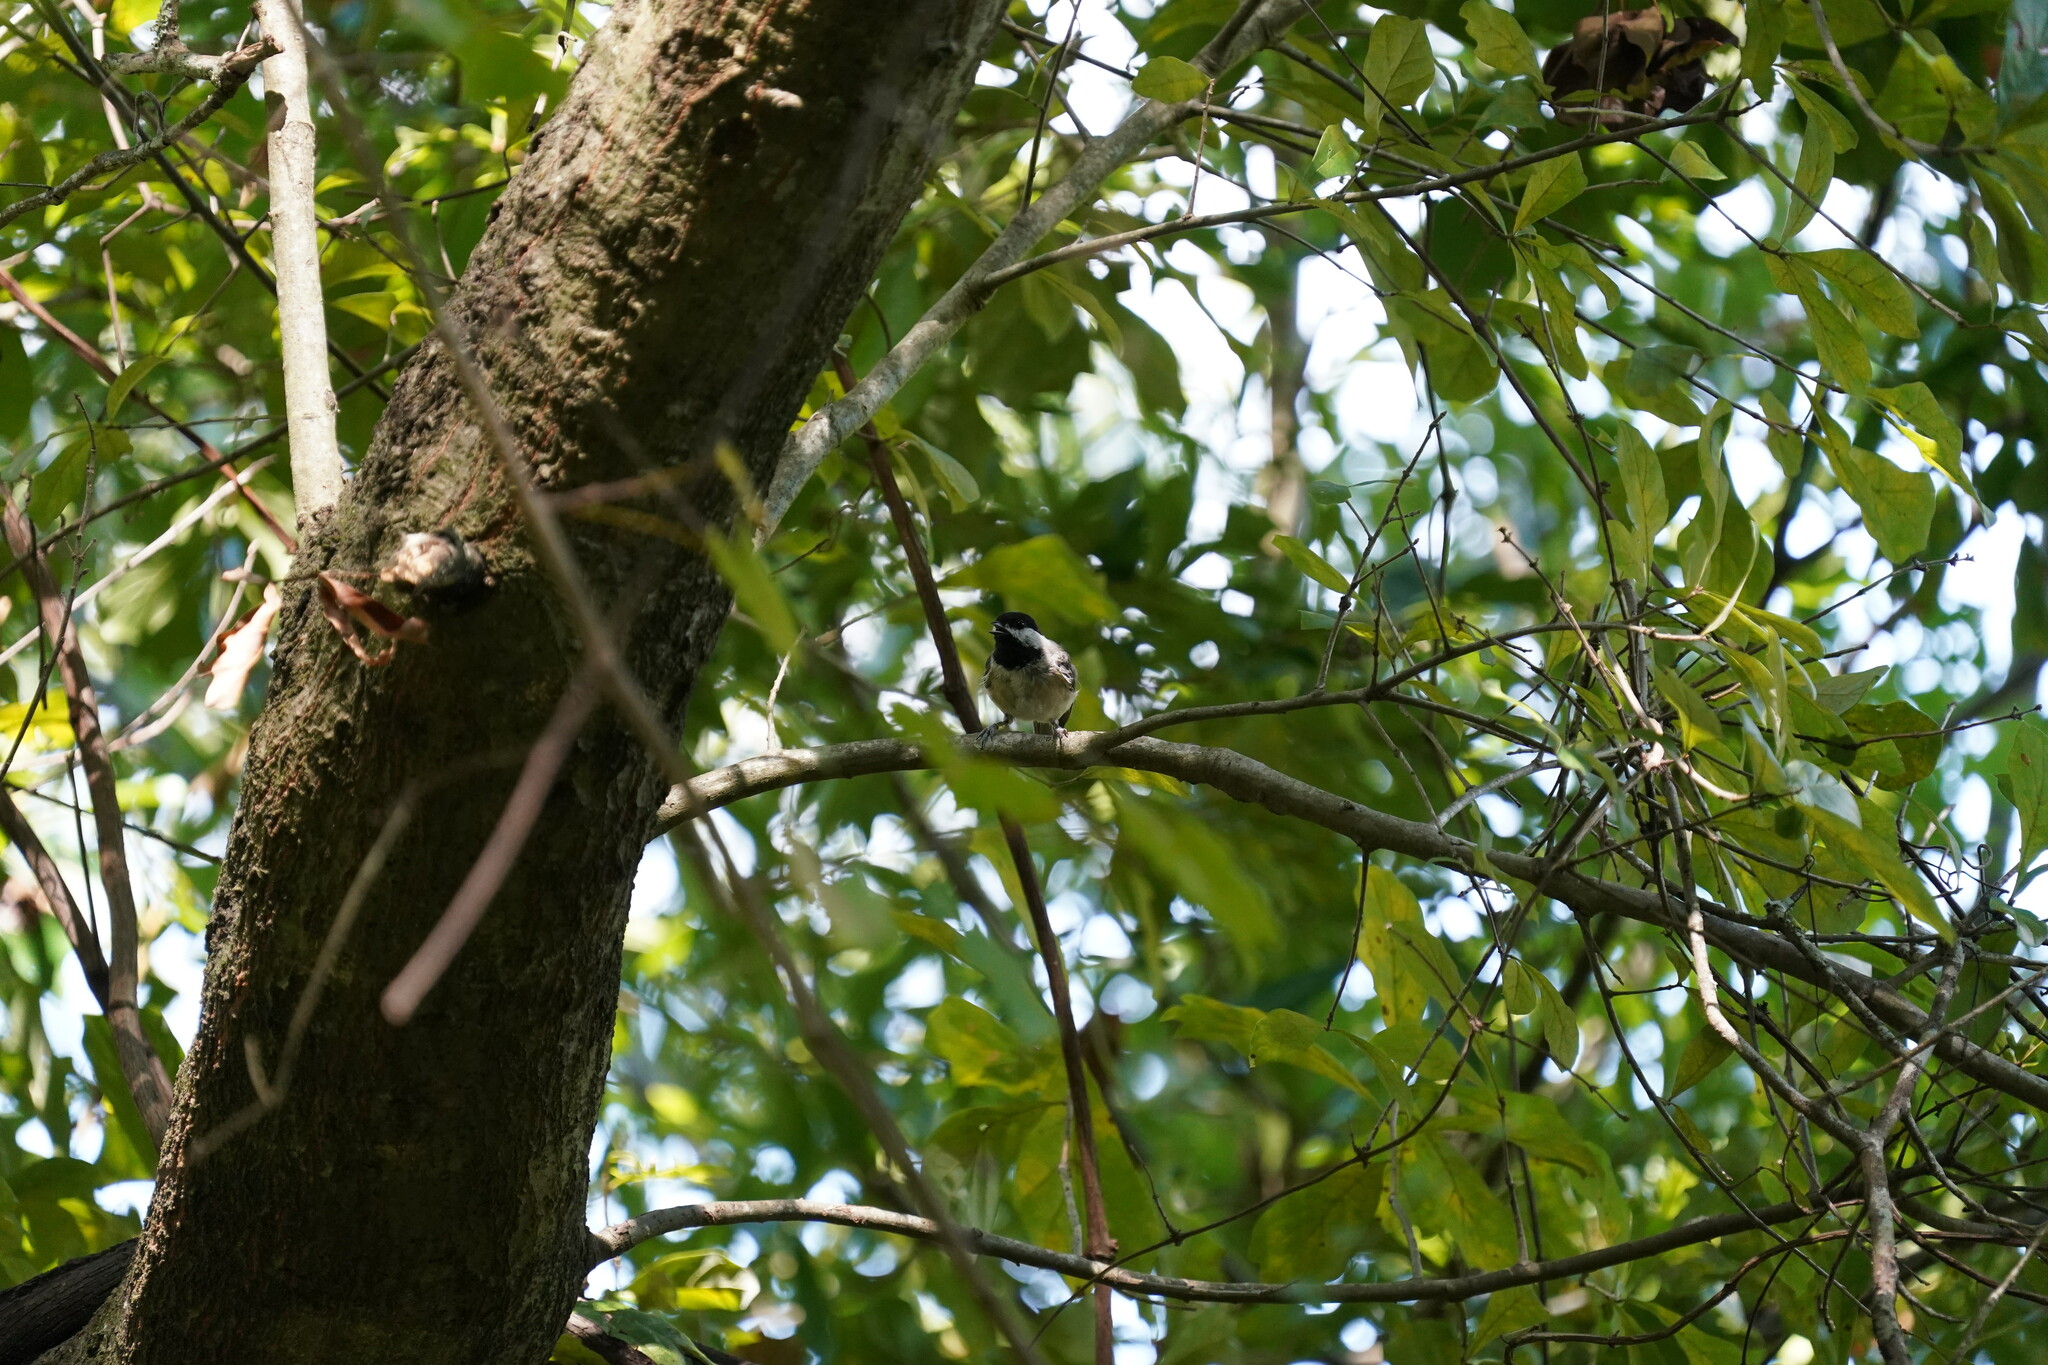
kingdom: Animalia
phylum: Chordata
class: Aves
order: Passeriformes
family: Paridae
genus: Poecile
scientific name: Poecile carolinensis
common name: Carolina chickadee
